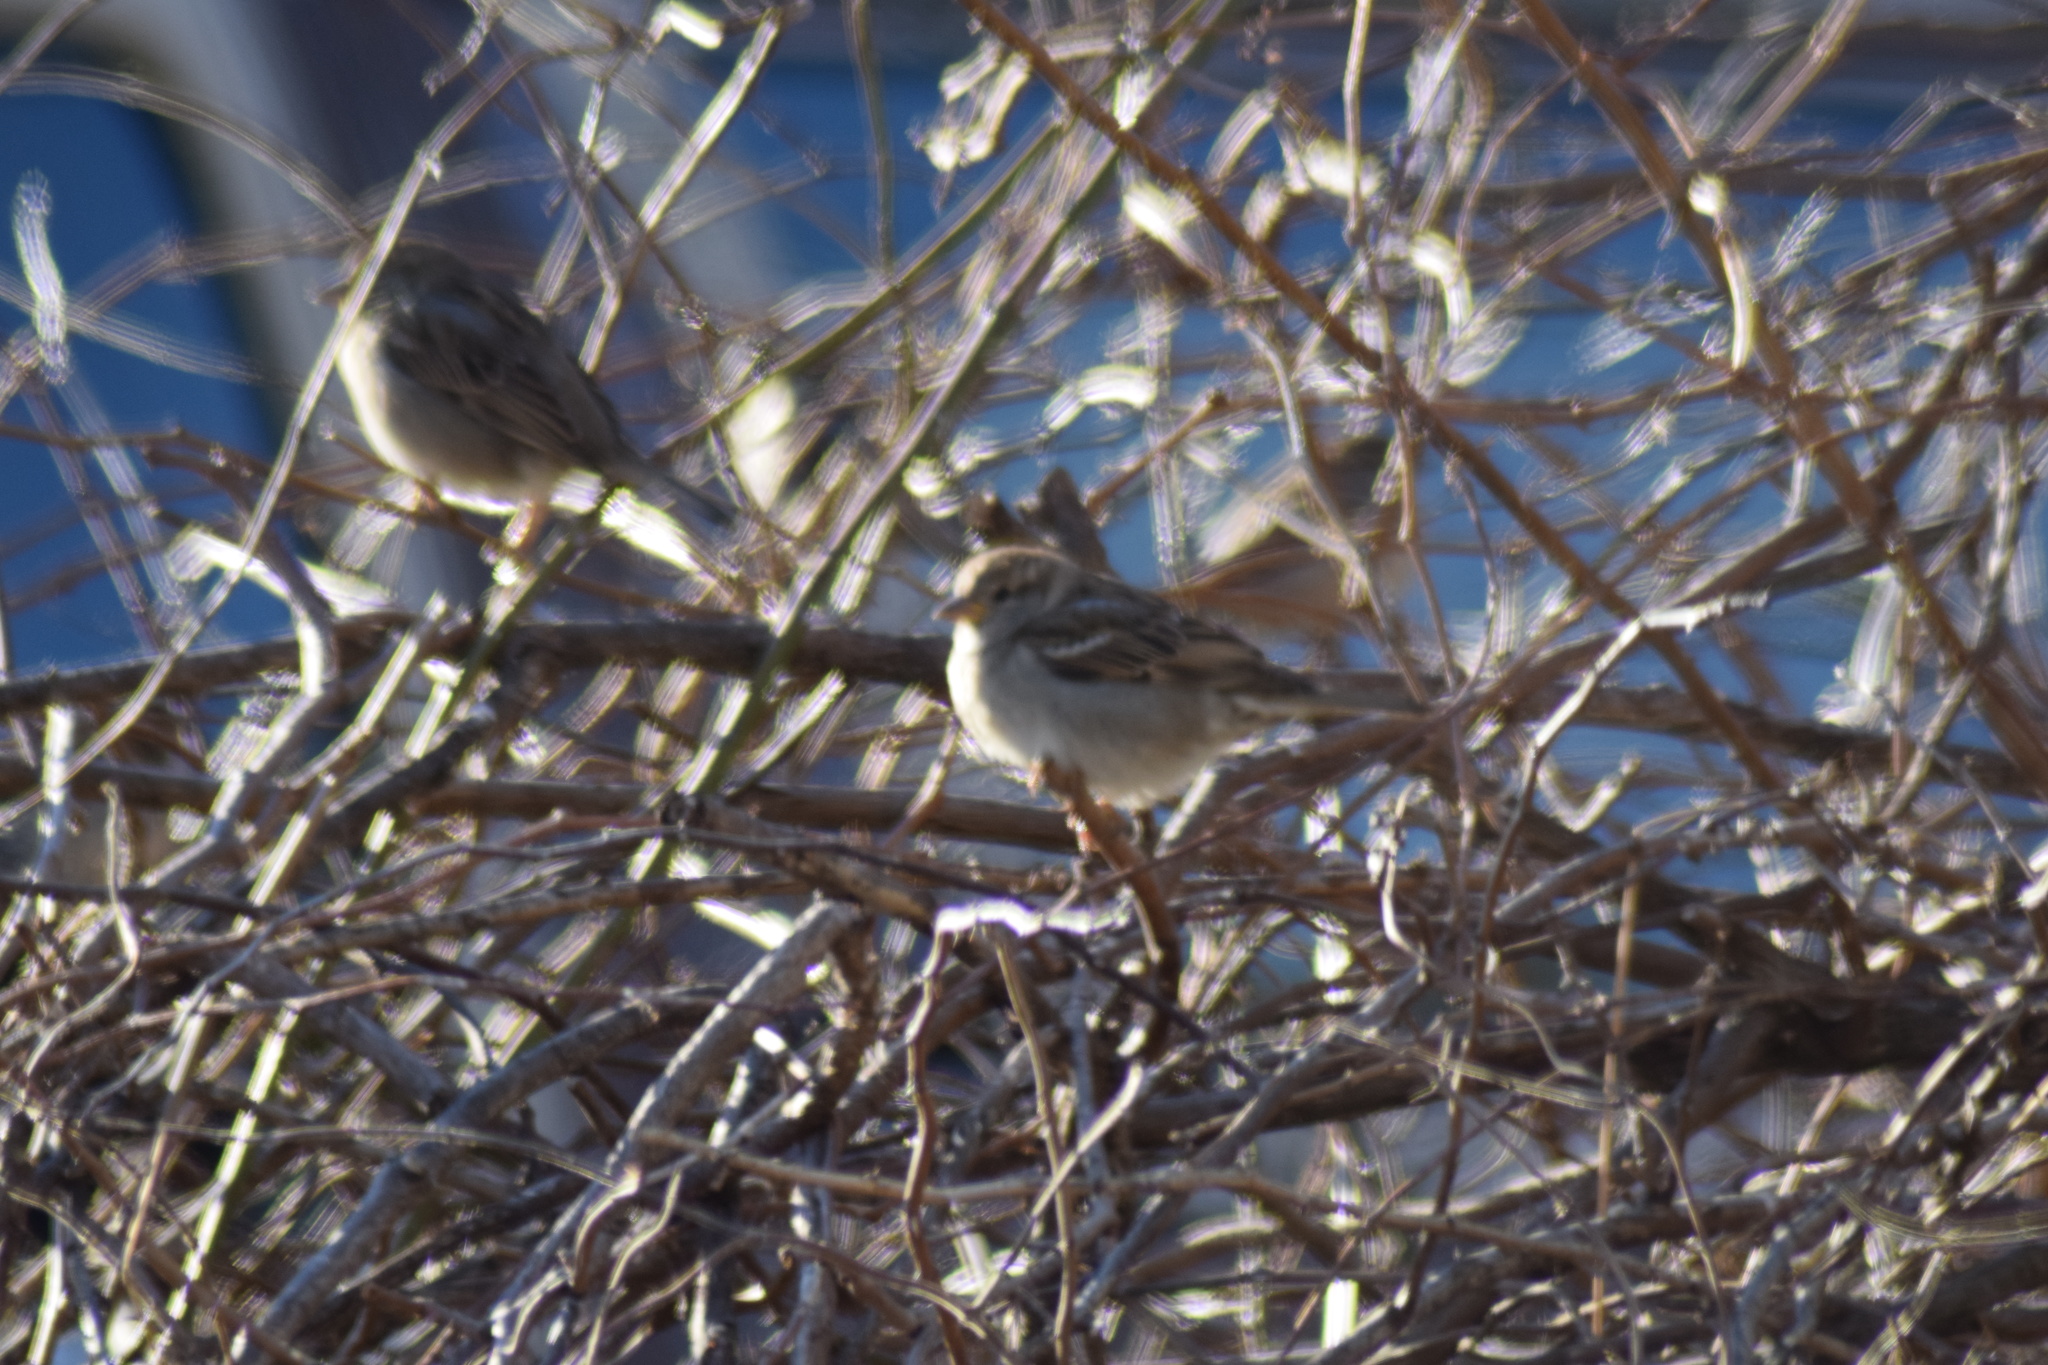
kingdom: Animalia
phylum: Chordata
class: Aves
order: Passeriformes
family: Passeridae
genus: Passer
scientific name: Passer domesticus
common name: House sparrow
